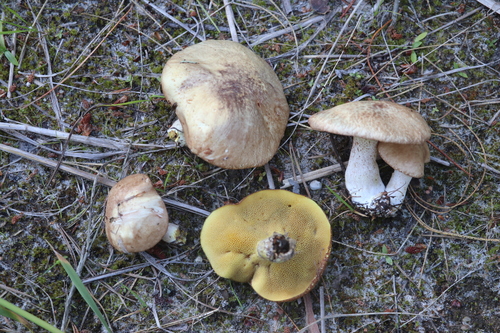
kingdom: Fungi
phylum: Basidiomycota
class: Agaricomycetes
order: Boletales
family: Suillaceae
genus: Suillus
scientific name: Suillus placidus
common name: Slippery white bolete
